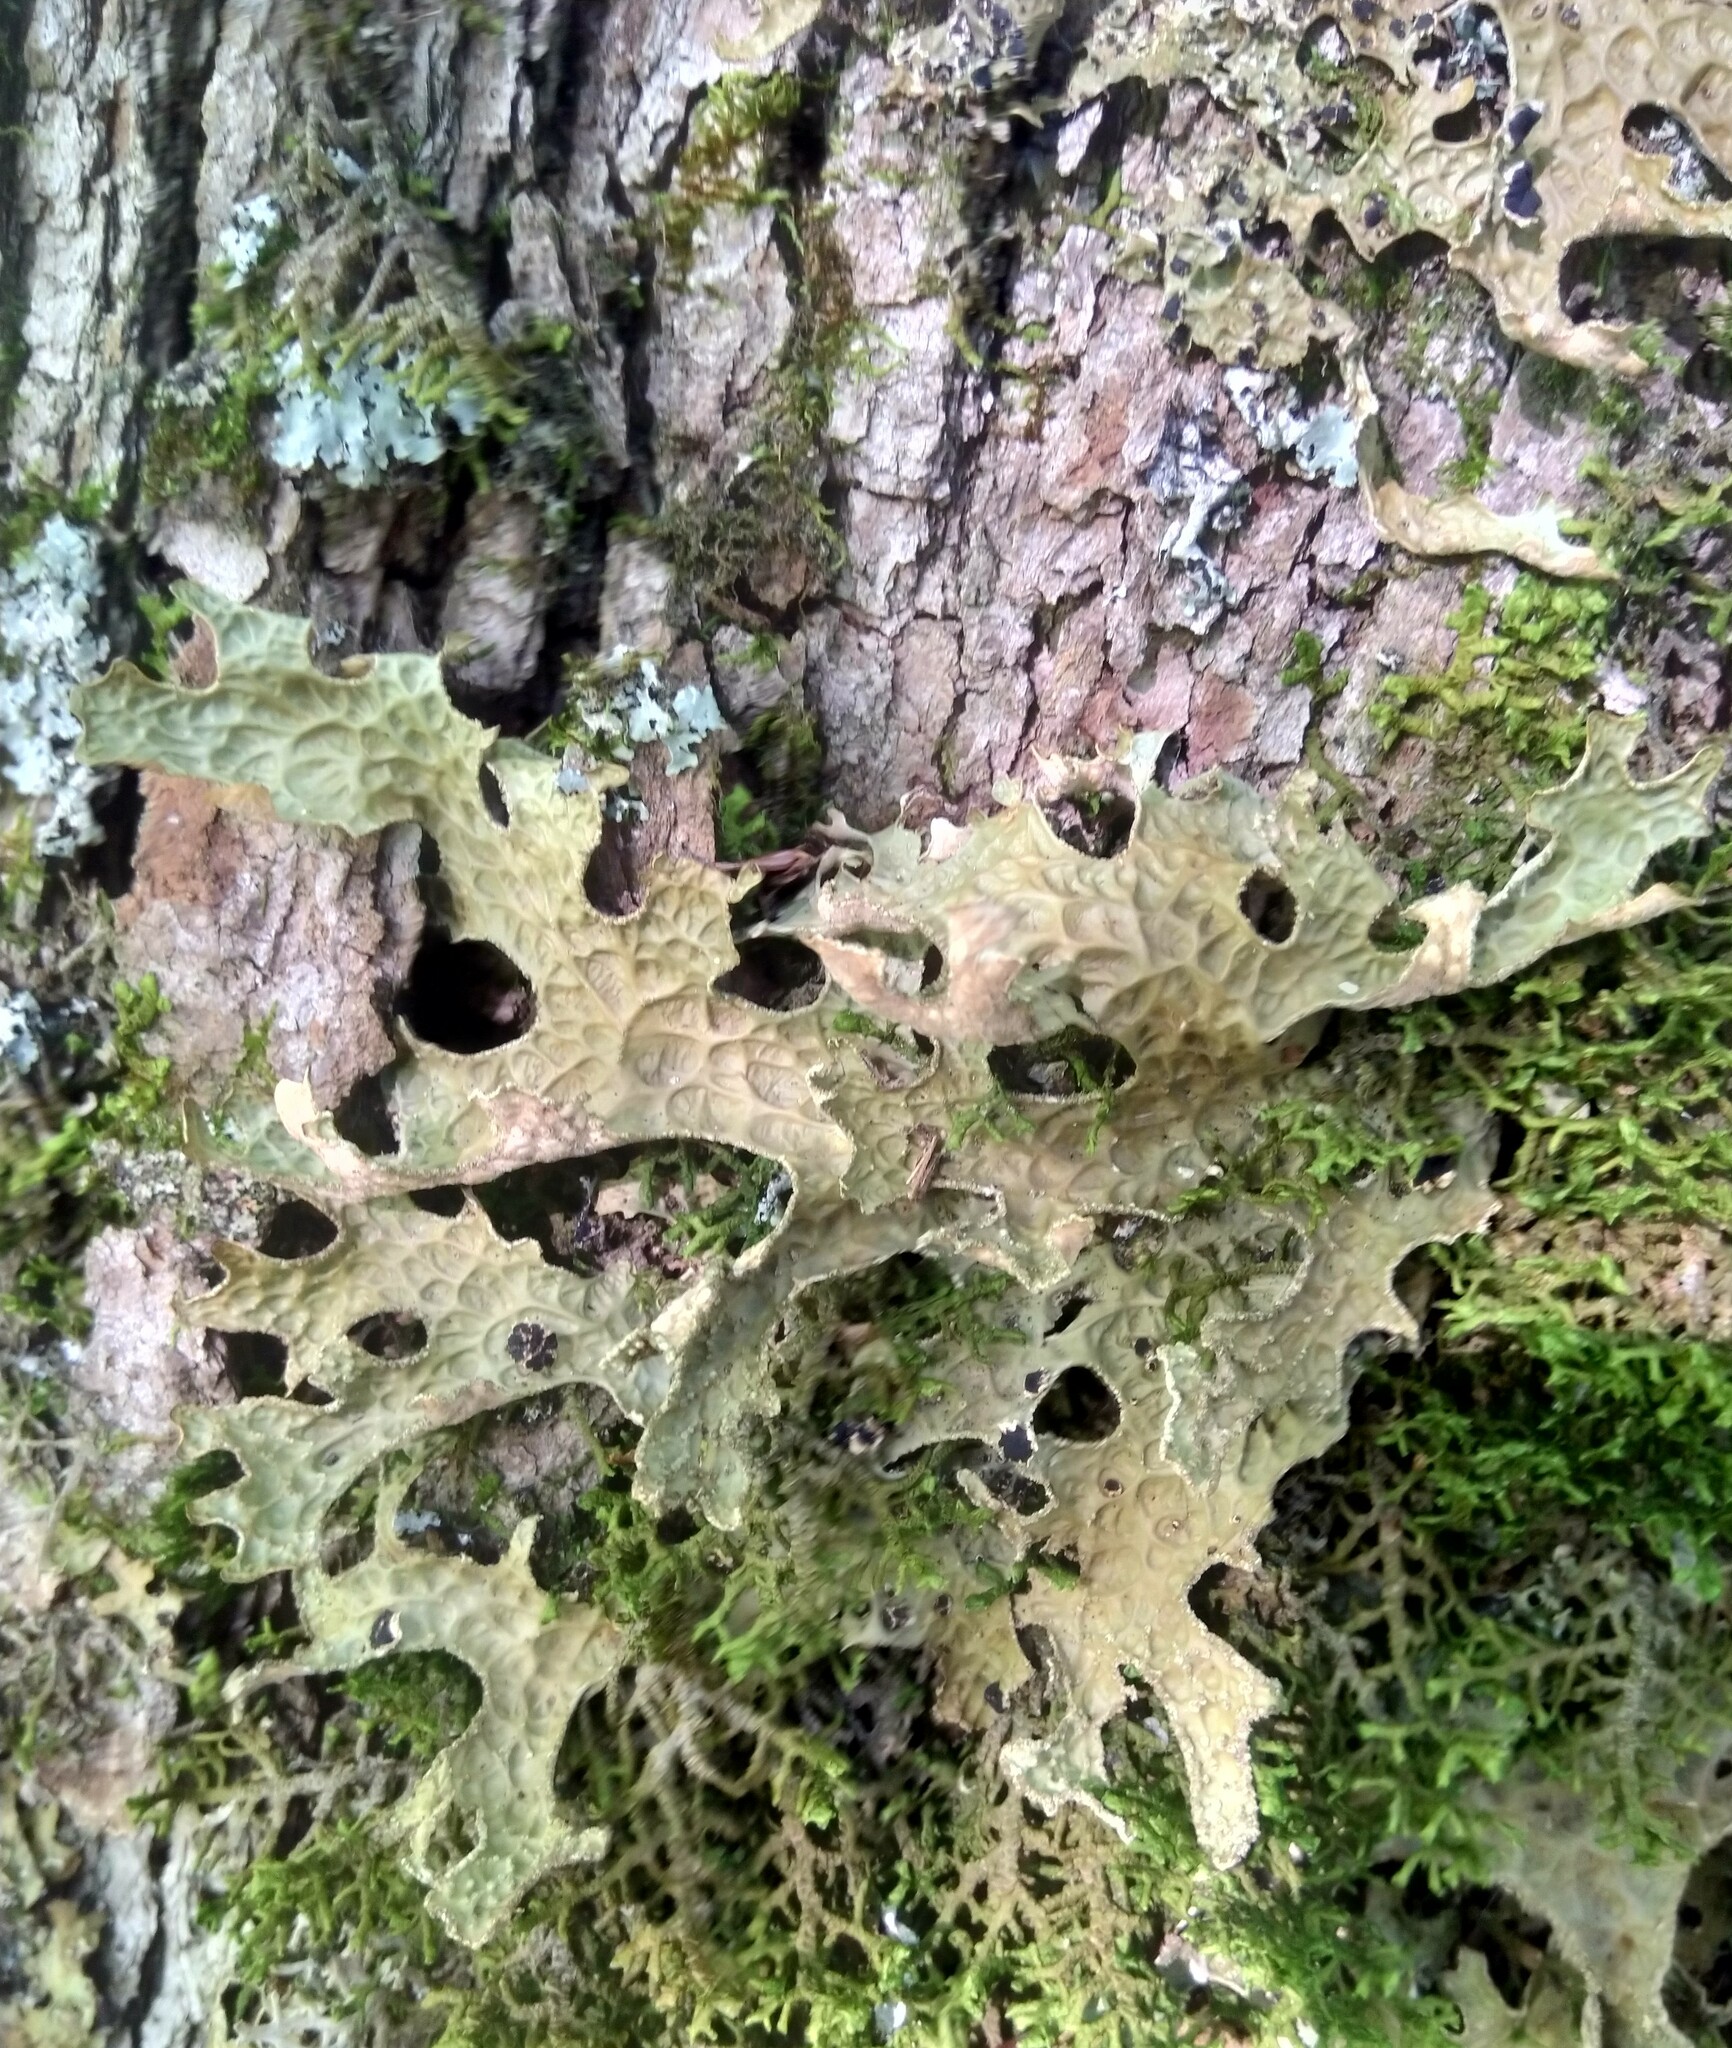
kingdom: Fungi
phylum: Ascomycota
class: Lecanoromycetes
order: Peltigerales
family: Lobariaceae
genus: Lobaria
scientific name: Lobaria pulmonaria
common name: Lungwort
